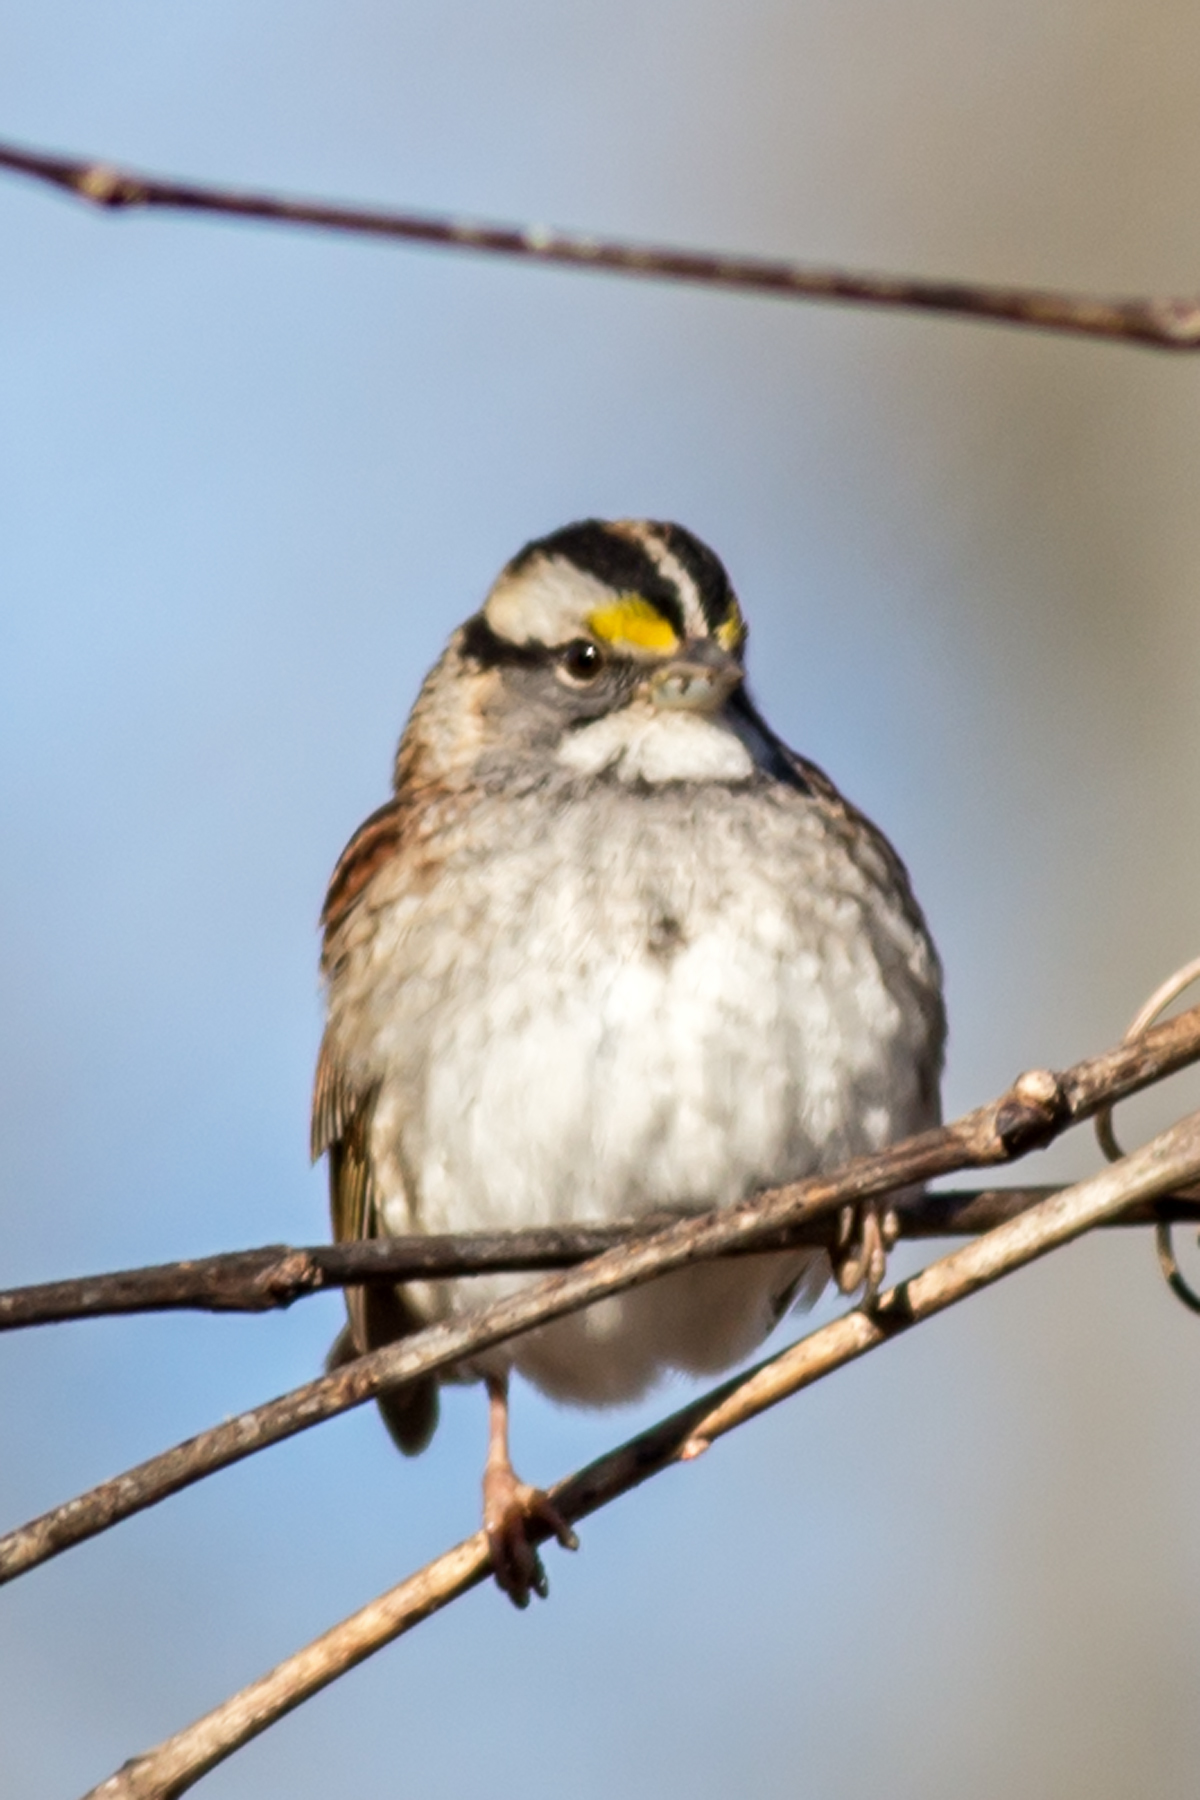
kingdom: Animalia
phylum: Chordata
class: Aves
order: Passeriformes
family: Passerellidae
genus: Zonotrichia
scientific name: Zonotrichia albicollis
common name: White-throated sparrow
